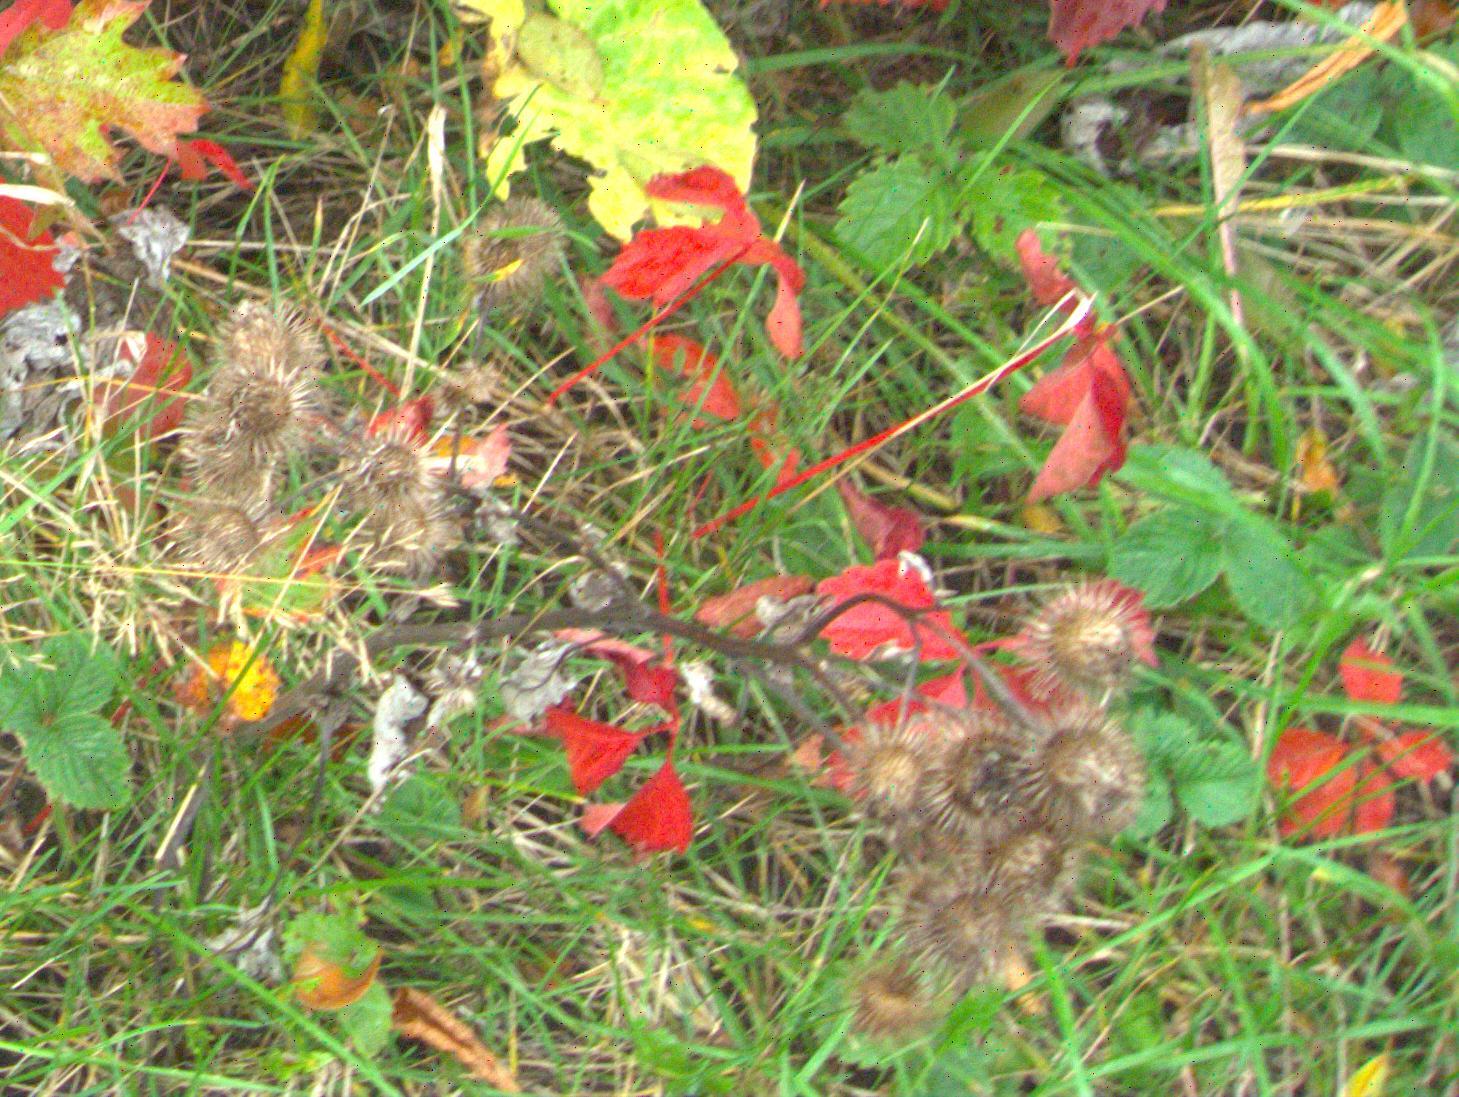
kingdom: Plantae
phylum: Tracheophyta
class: Magnoliopsida
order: Asterales
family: Asteraceae
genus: Arctium
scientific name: Arctium
